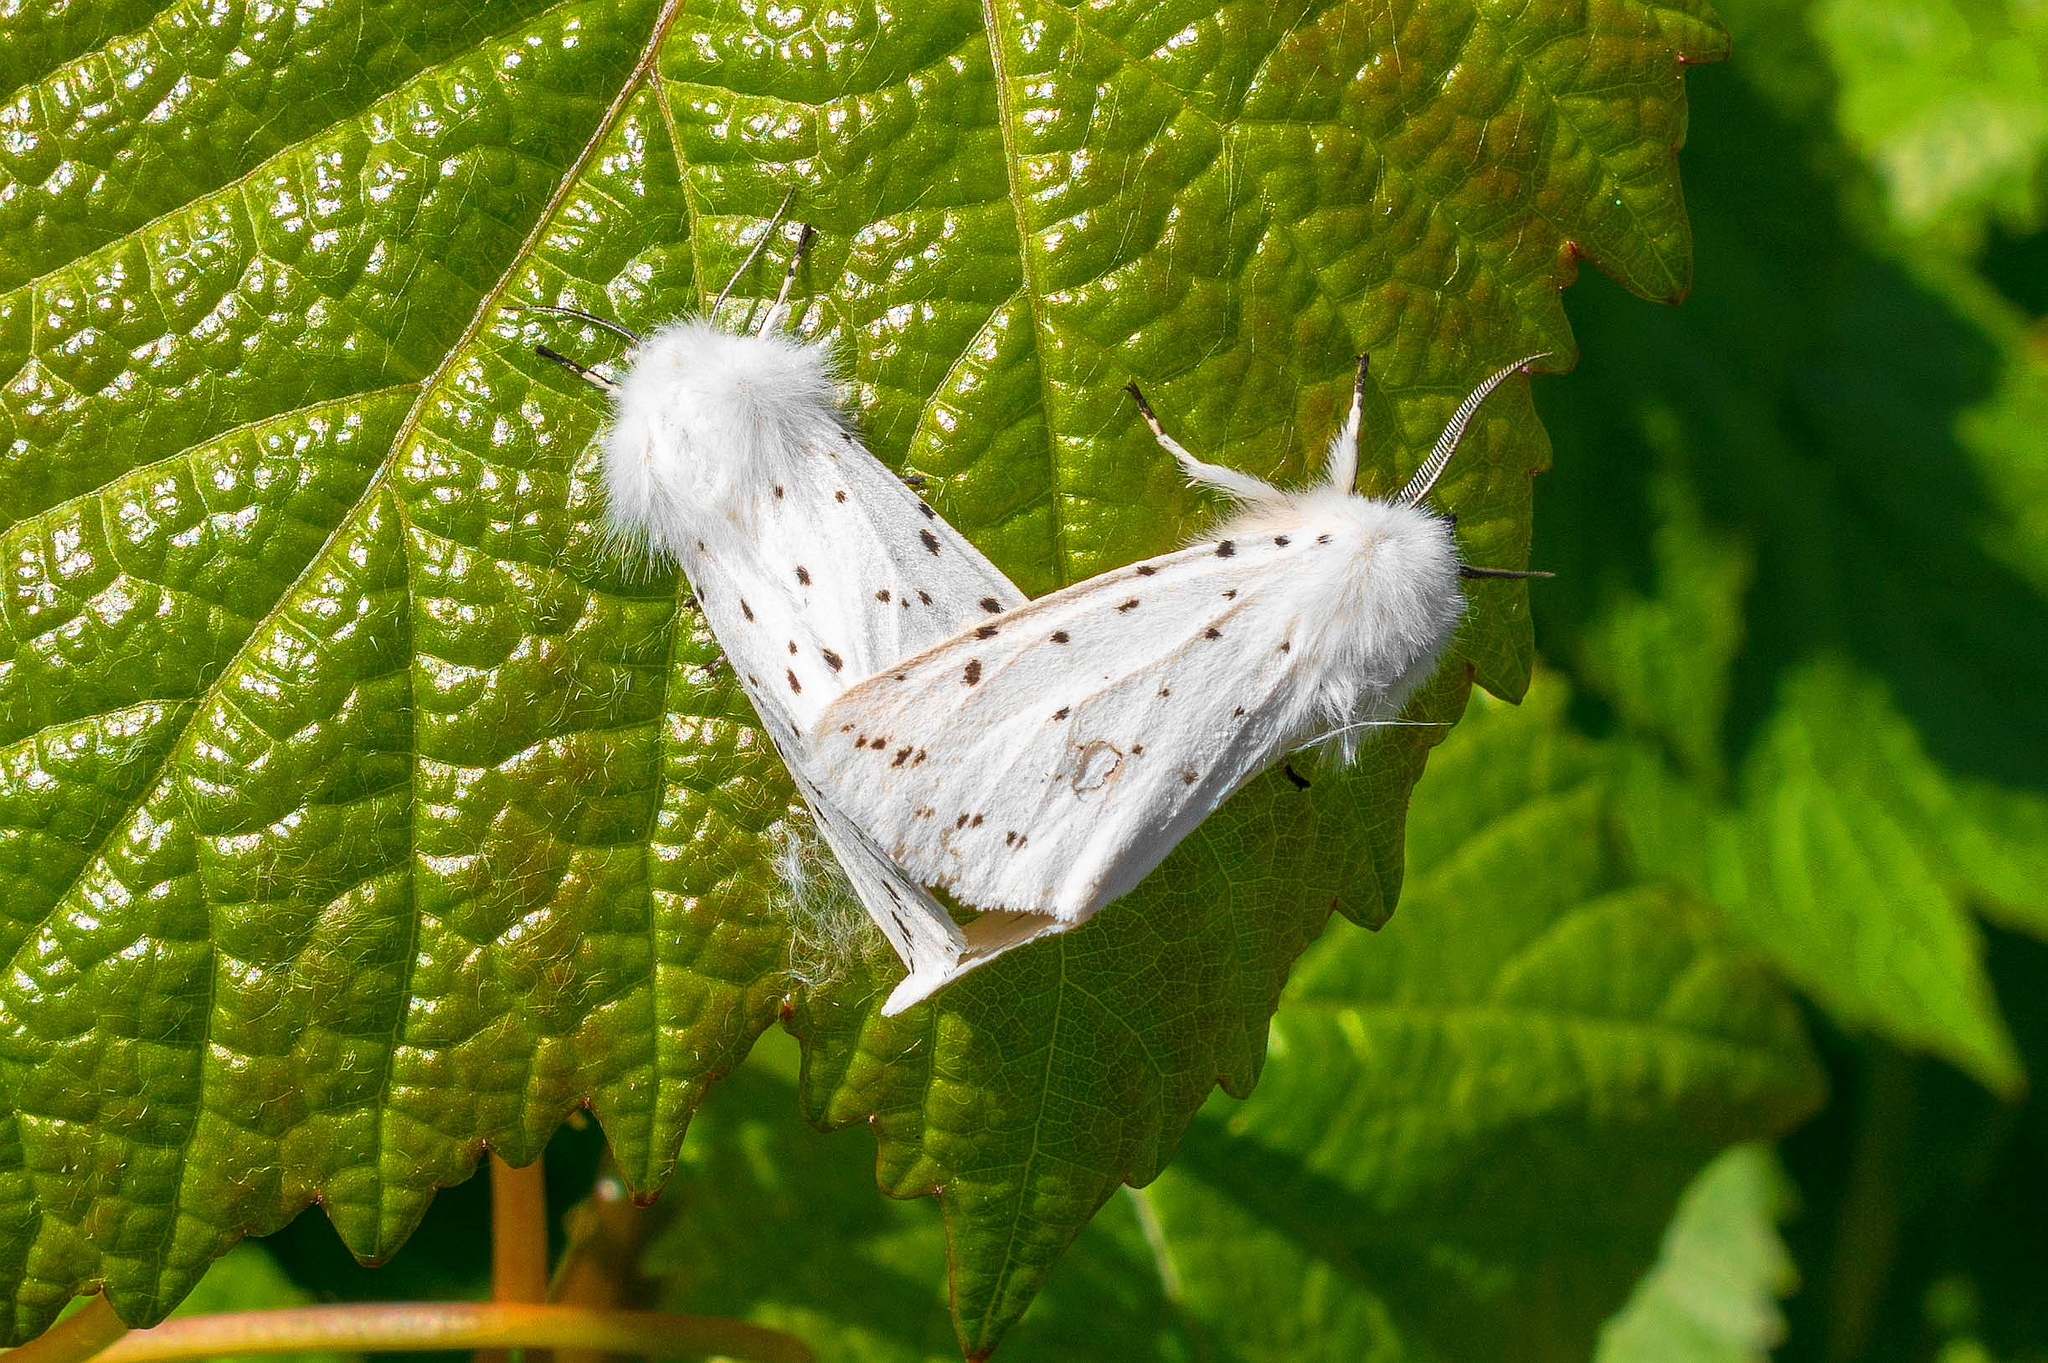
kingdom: Animalia
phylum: Arthropoda
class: Insecta
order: Lepidoptera
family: Erebidae
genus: Spilosoma
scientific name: Spilosoma lubricipeda
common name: White ermine
